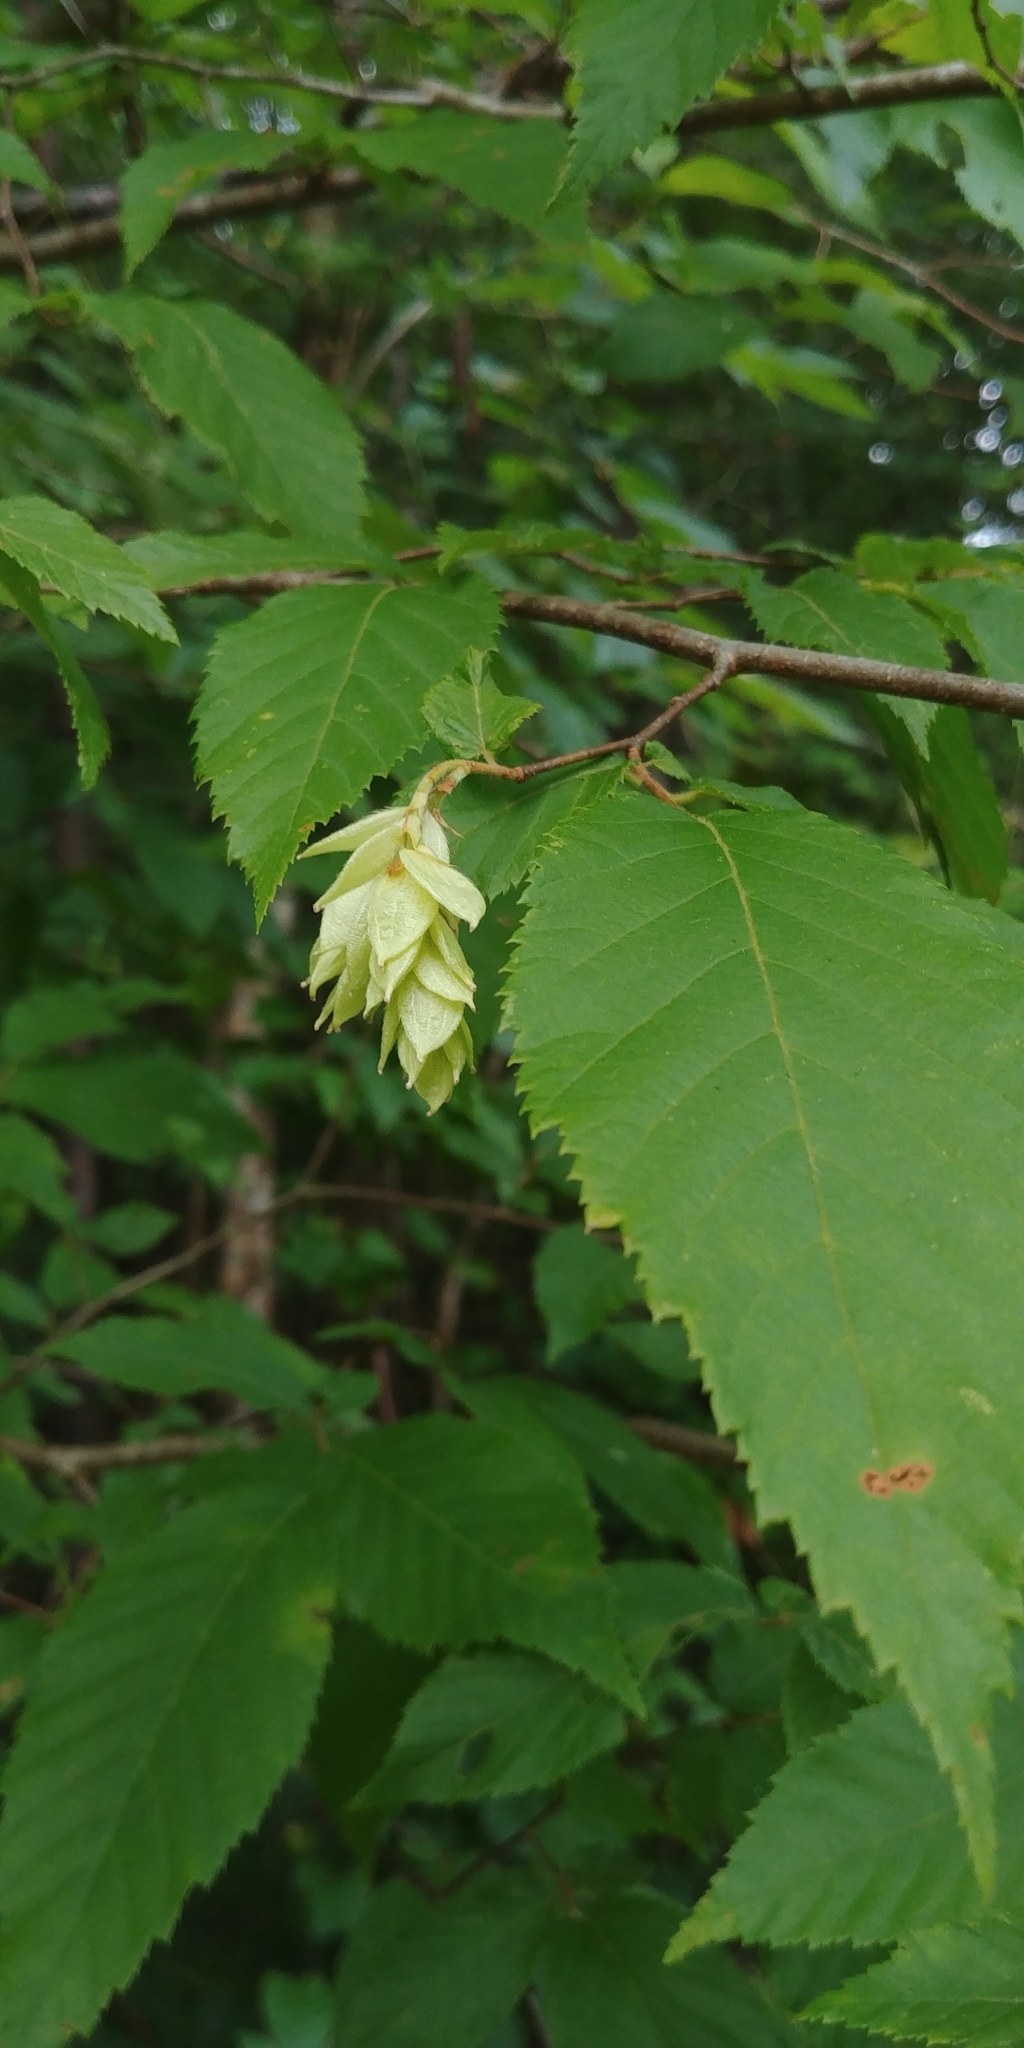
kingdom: Plantae
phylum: Tracheophyta
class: Magnoliopsida
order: Fagales
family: Betulaceae
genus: Ostrya
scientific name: Ostrya virginiana
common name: Ironwood
